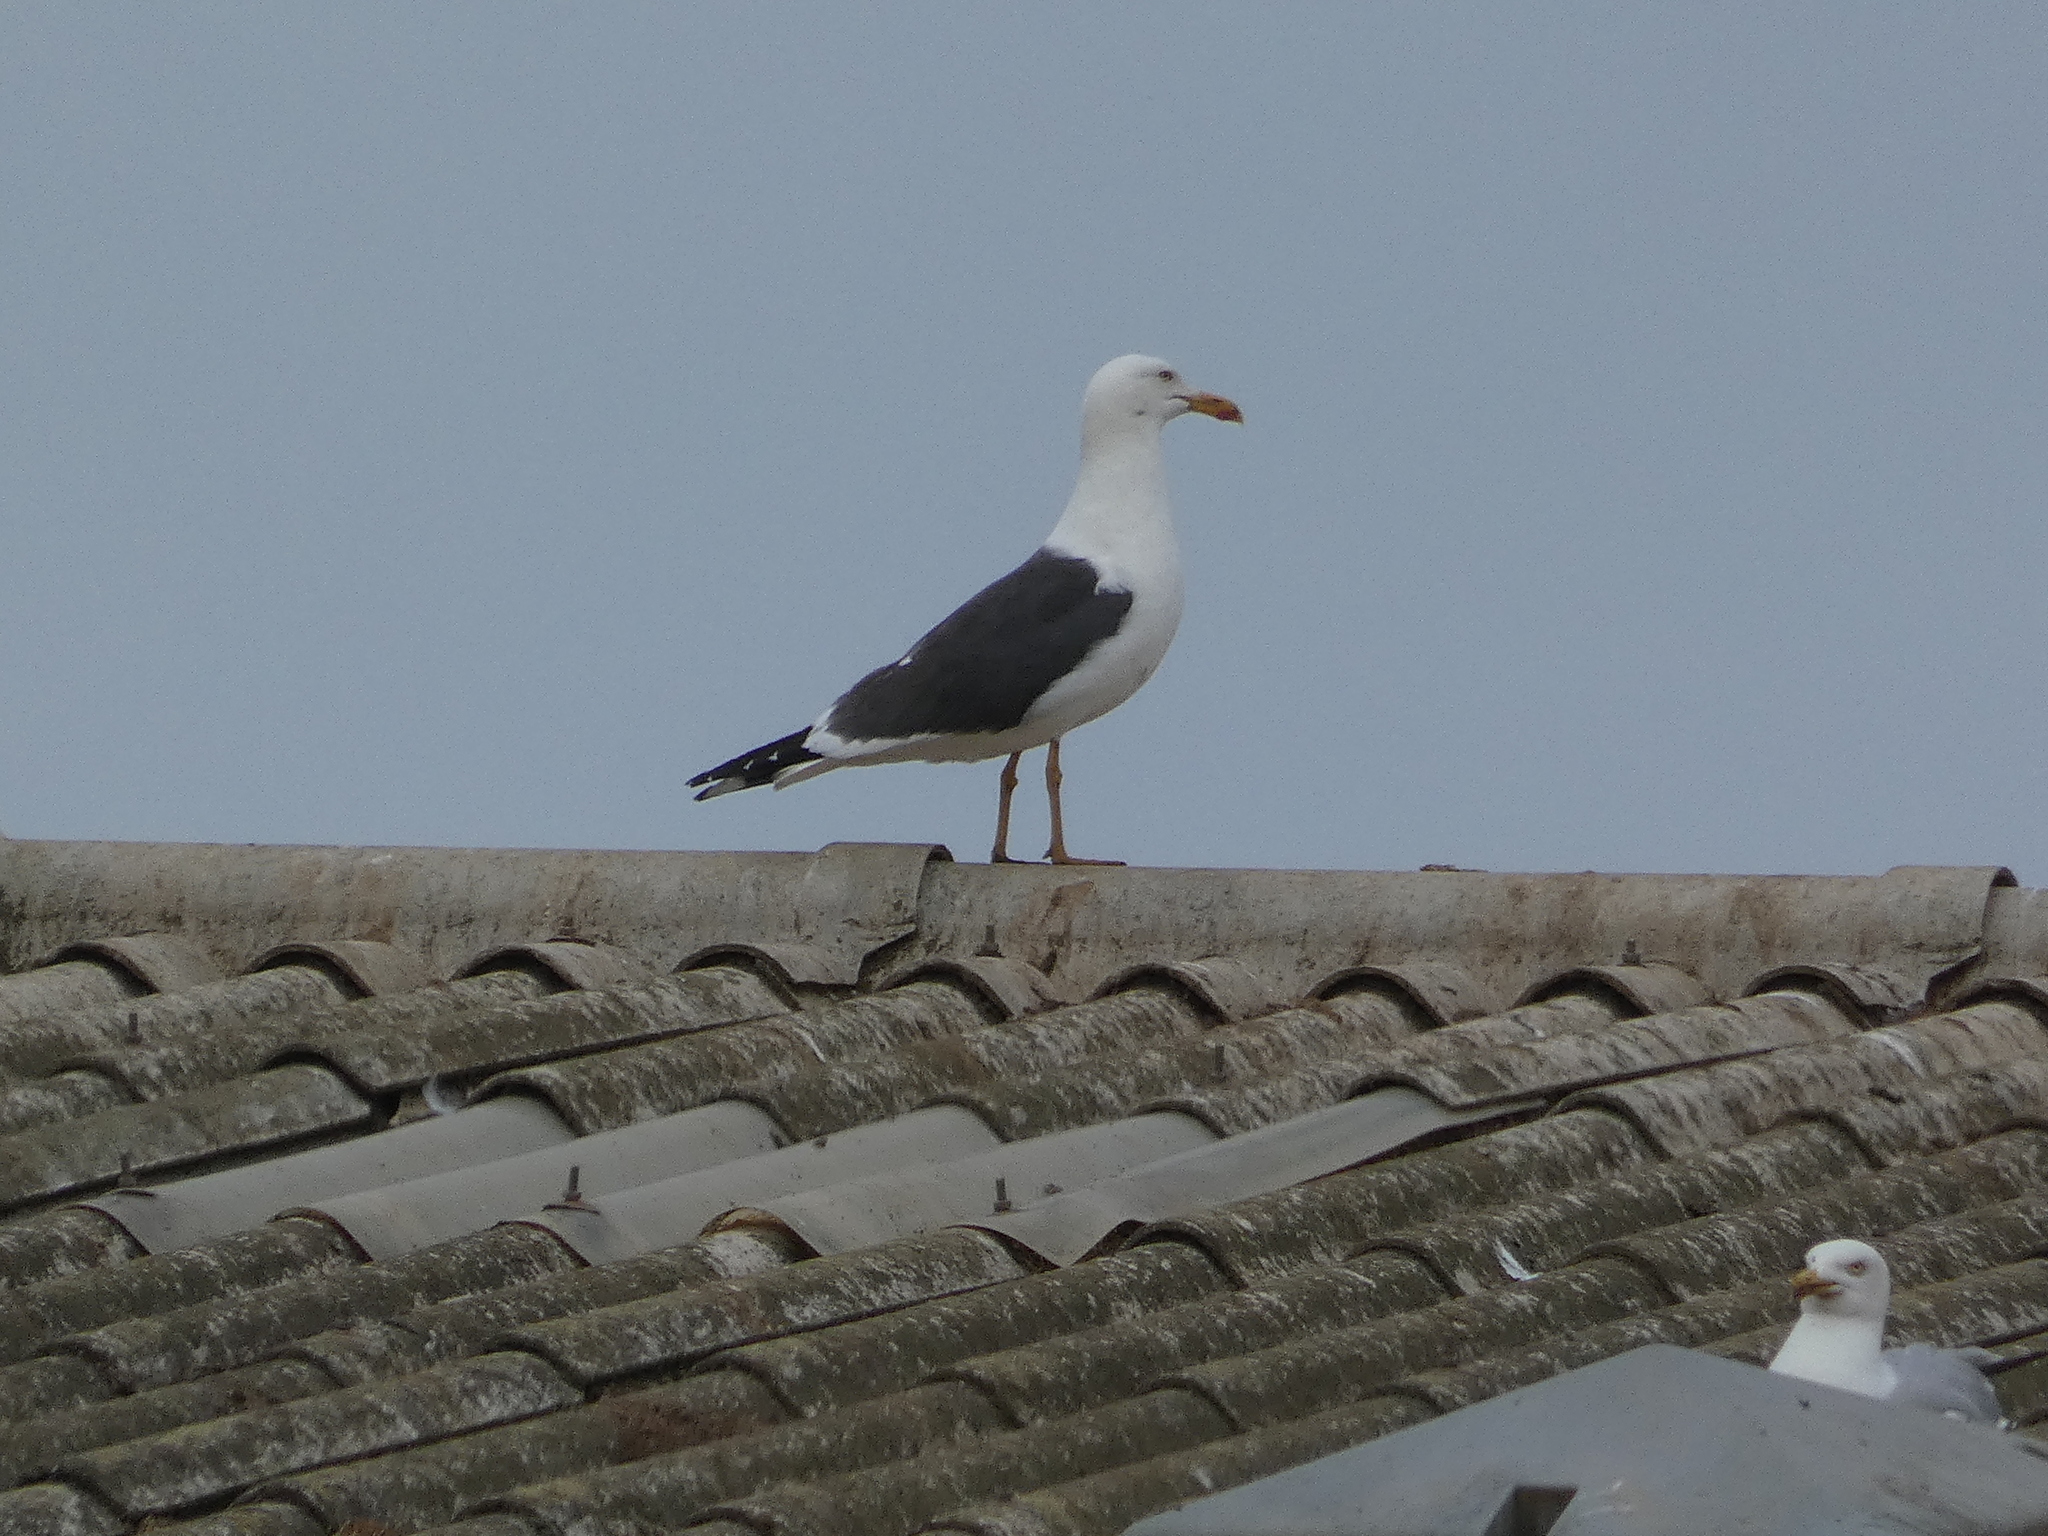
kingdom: Animalia
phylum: Chordata
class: Aves
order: Charadriiformes
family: Laridae
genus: Larus
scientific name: Larus fuscus
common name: Lesser black-backed gull
